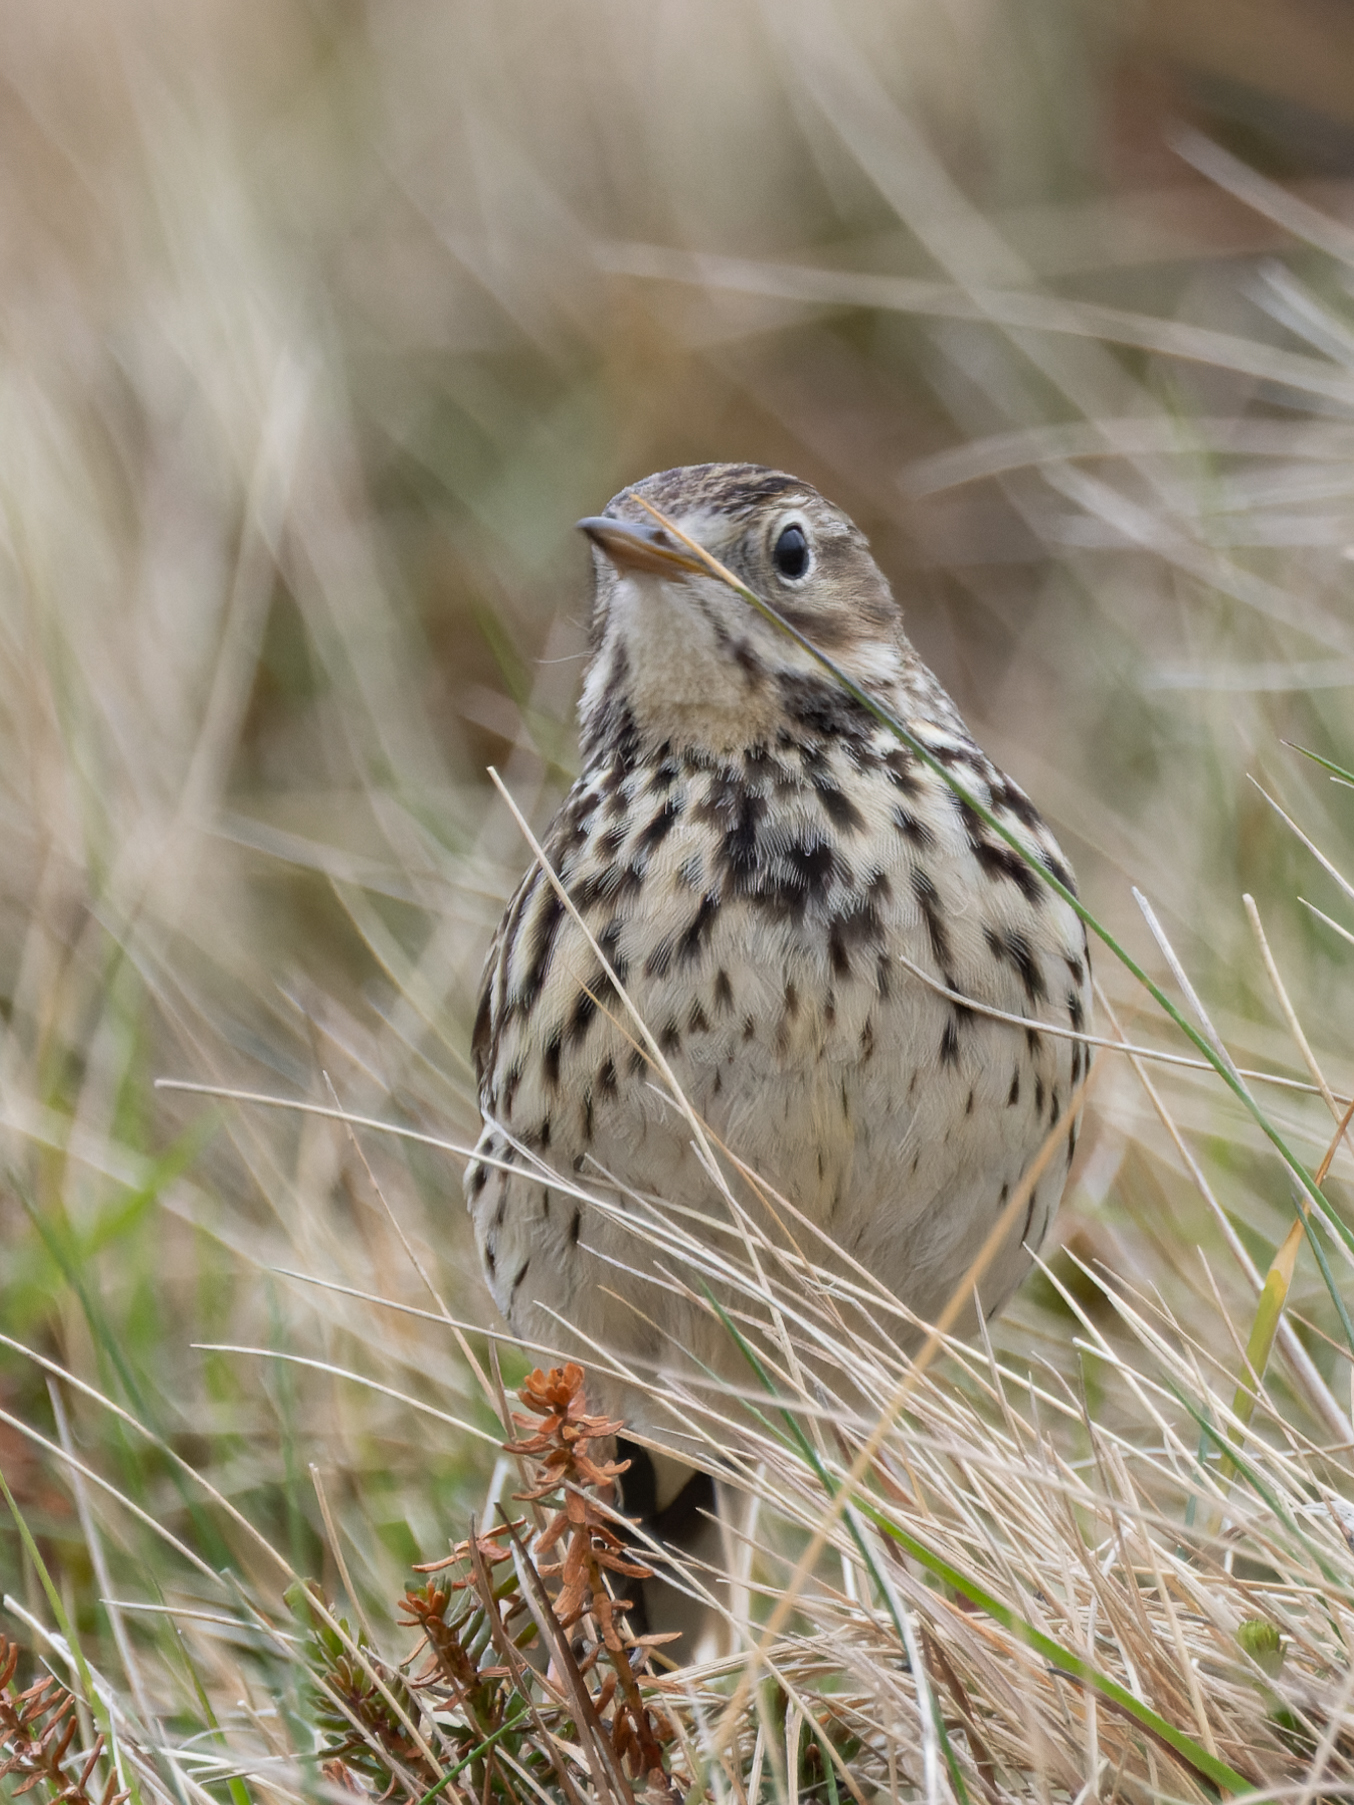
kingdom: Animalia
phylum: Chordata
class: Aves
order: Passeriformes
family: Motacillidae
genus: Anthus
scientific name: Anthus pratensis
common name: Meadow pipit
